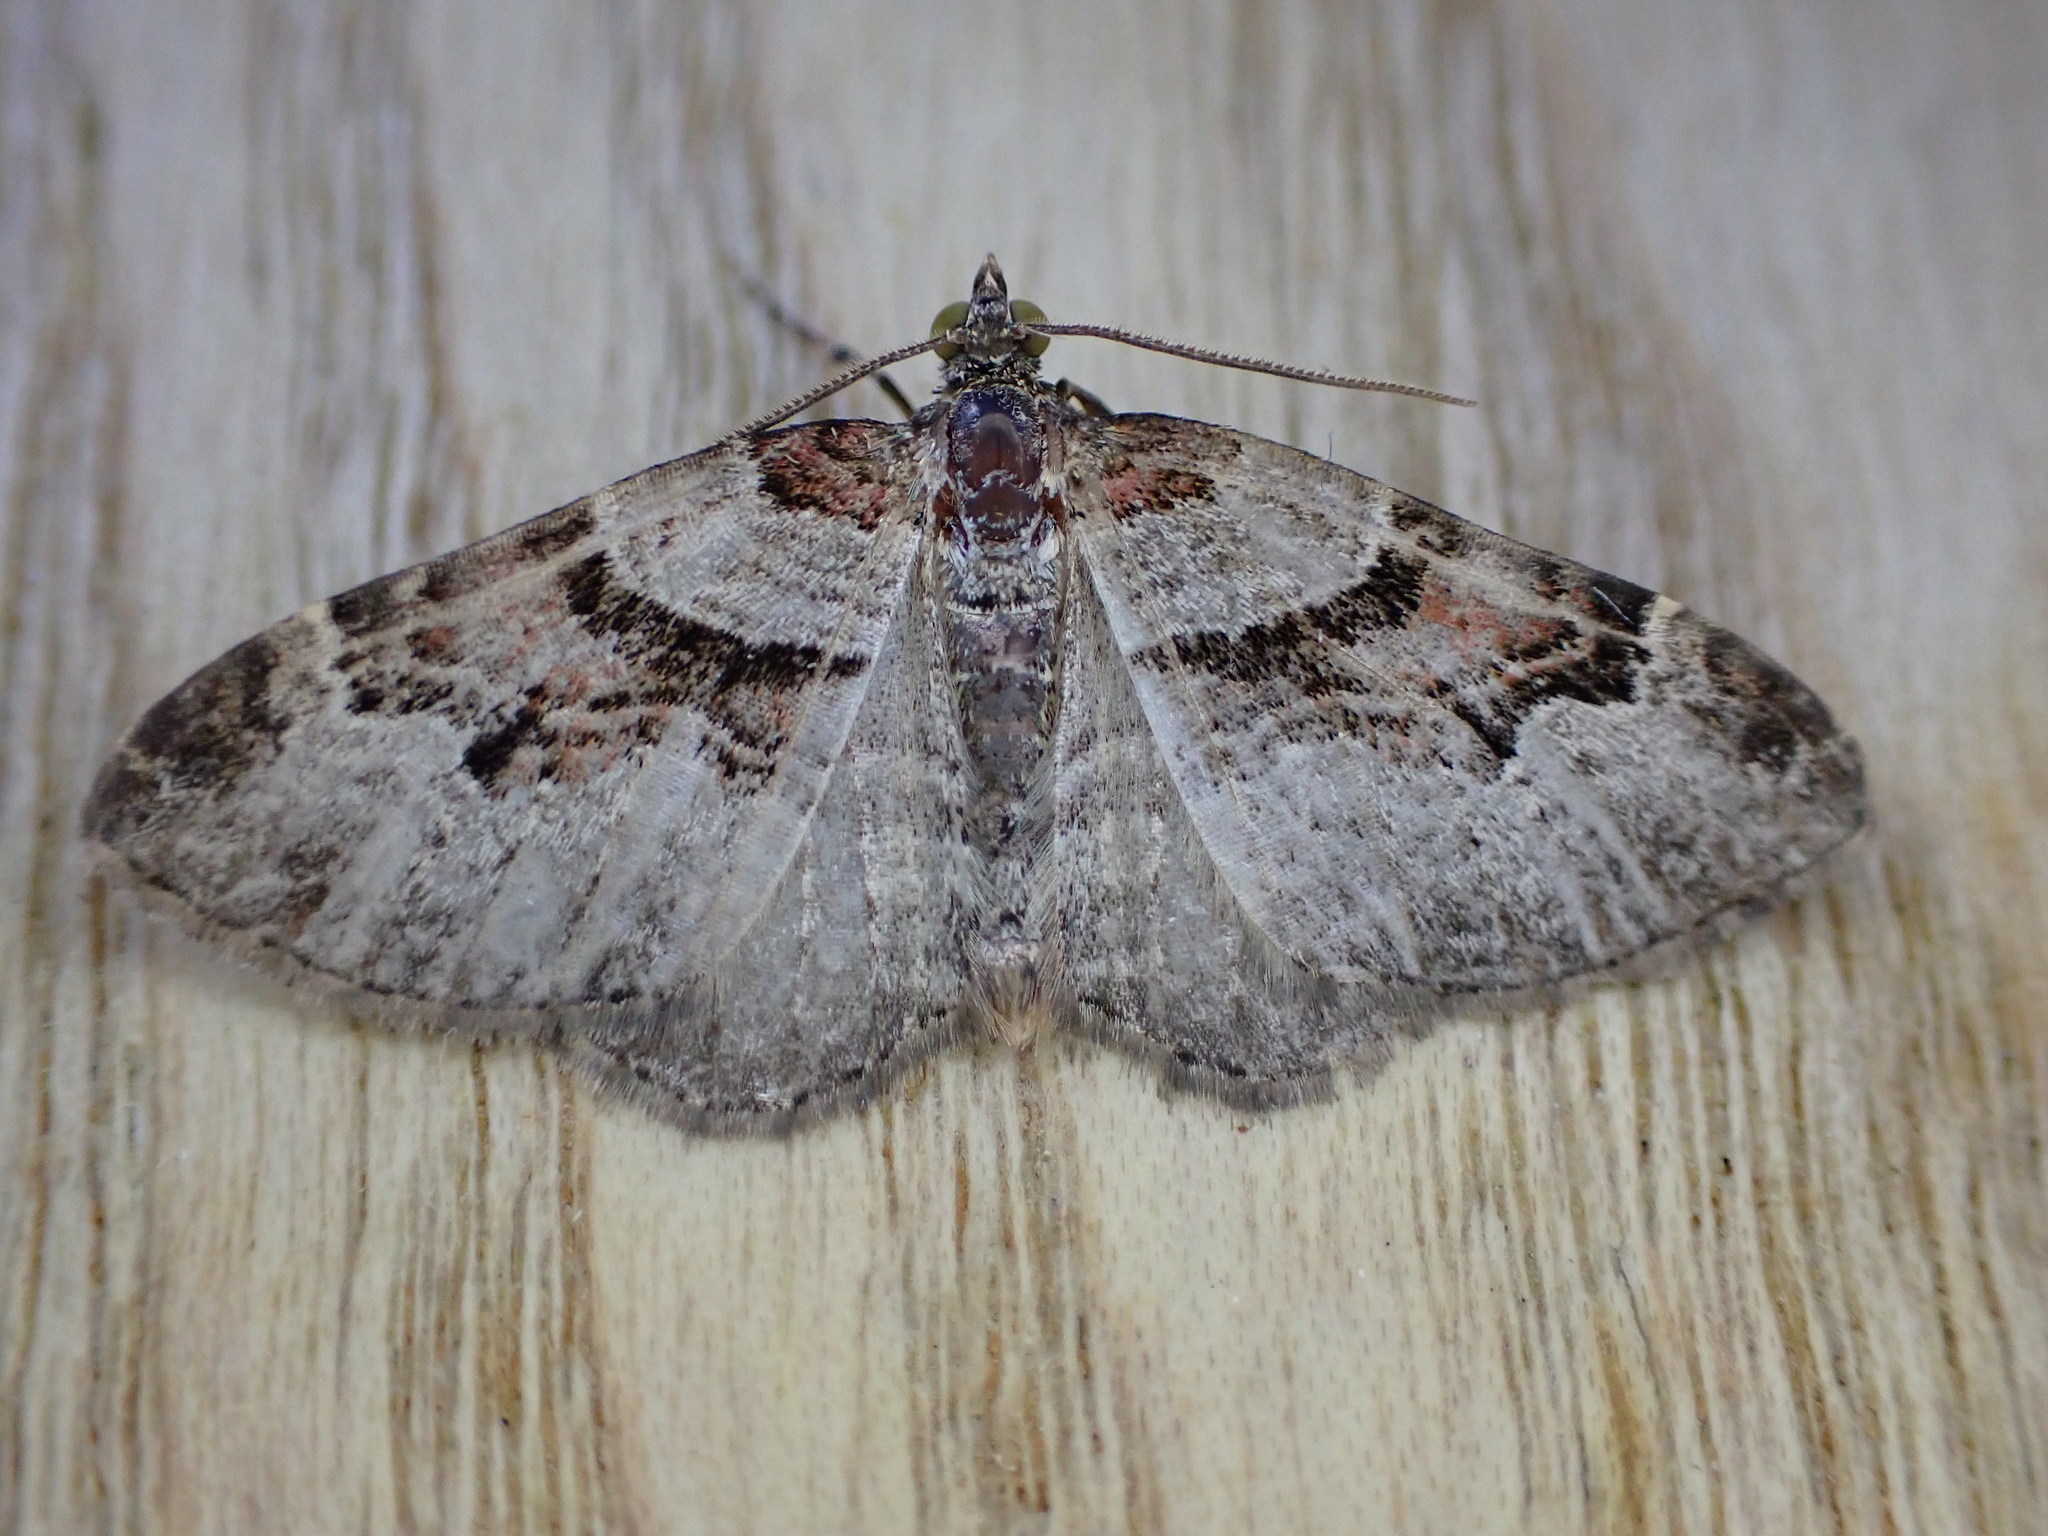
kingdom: Animalia
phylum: Arthropoda
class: Insecta
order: Lepidoptera
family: Geometridae
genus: Xanthorhoe
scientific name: Xanthorhoe designata
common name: Flame carpet
